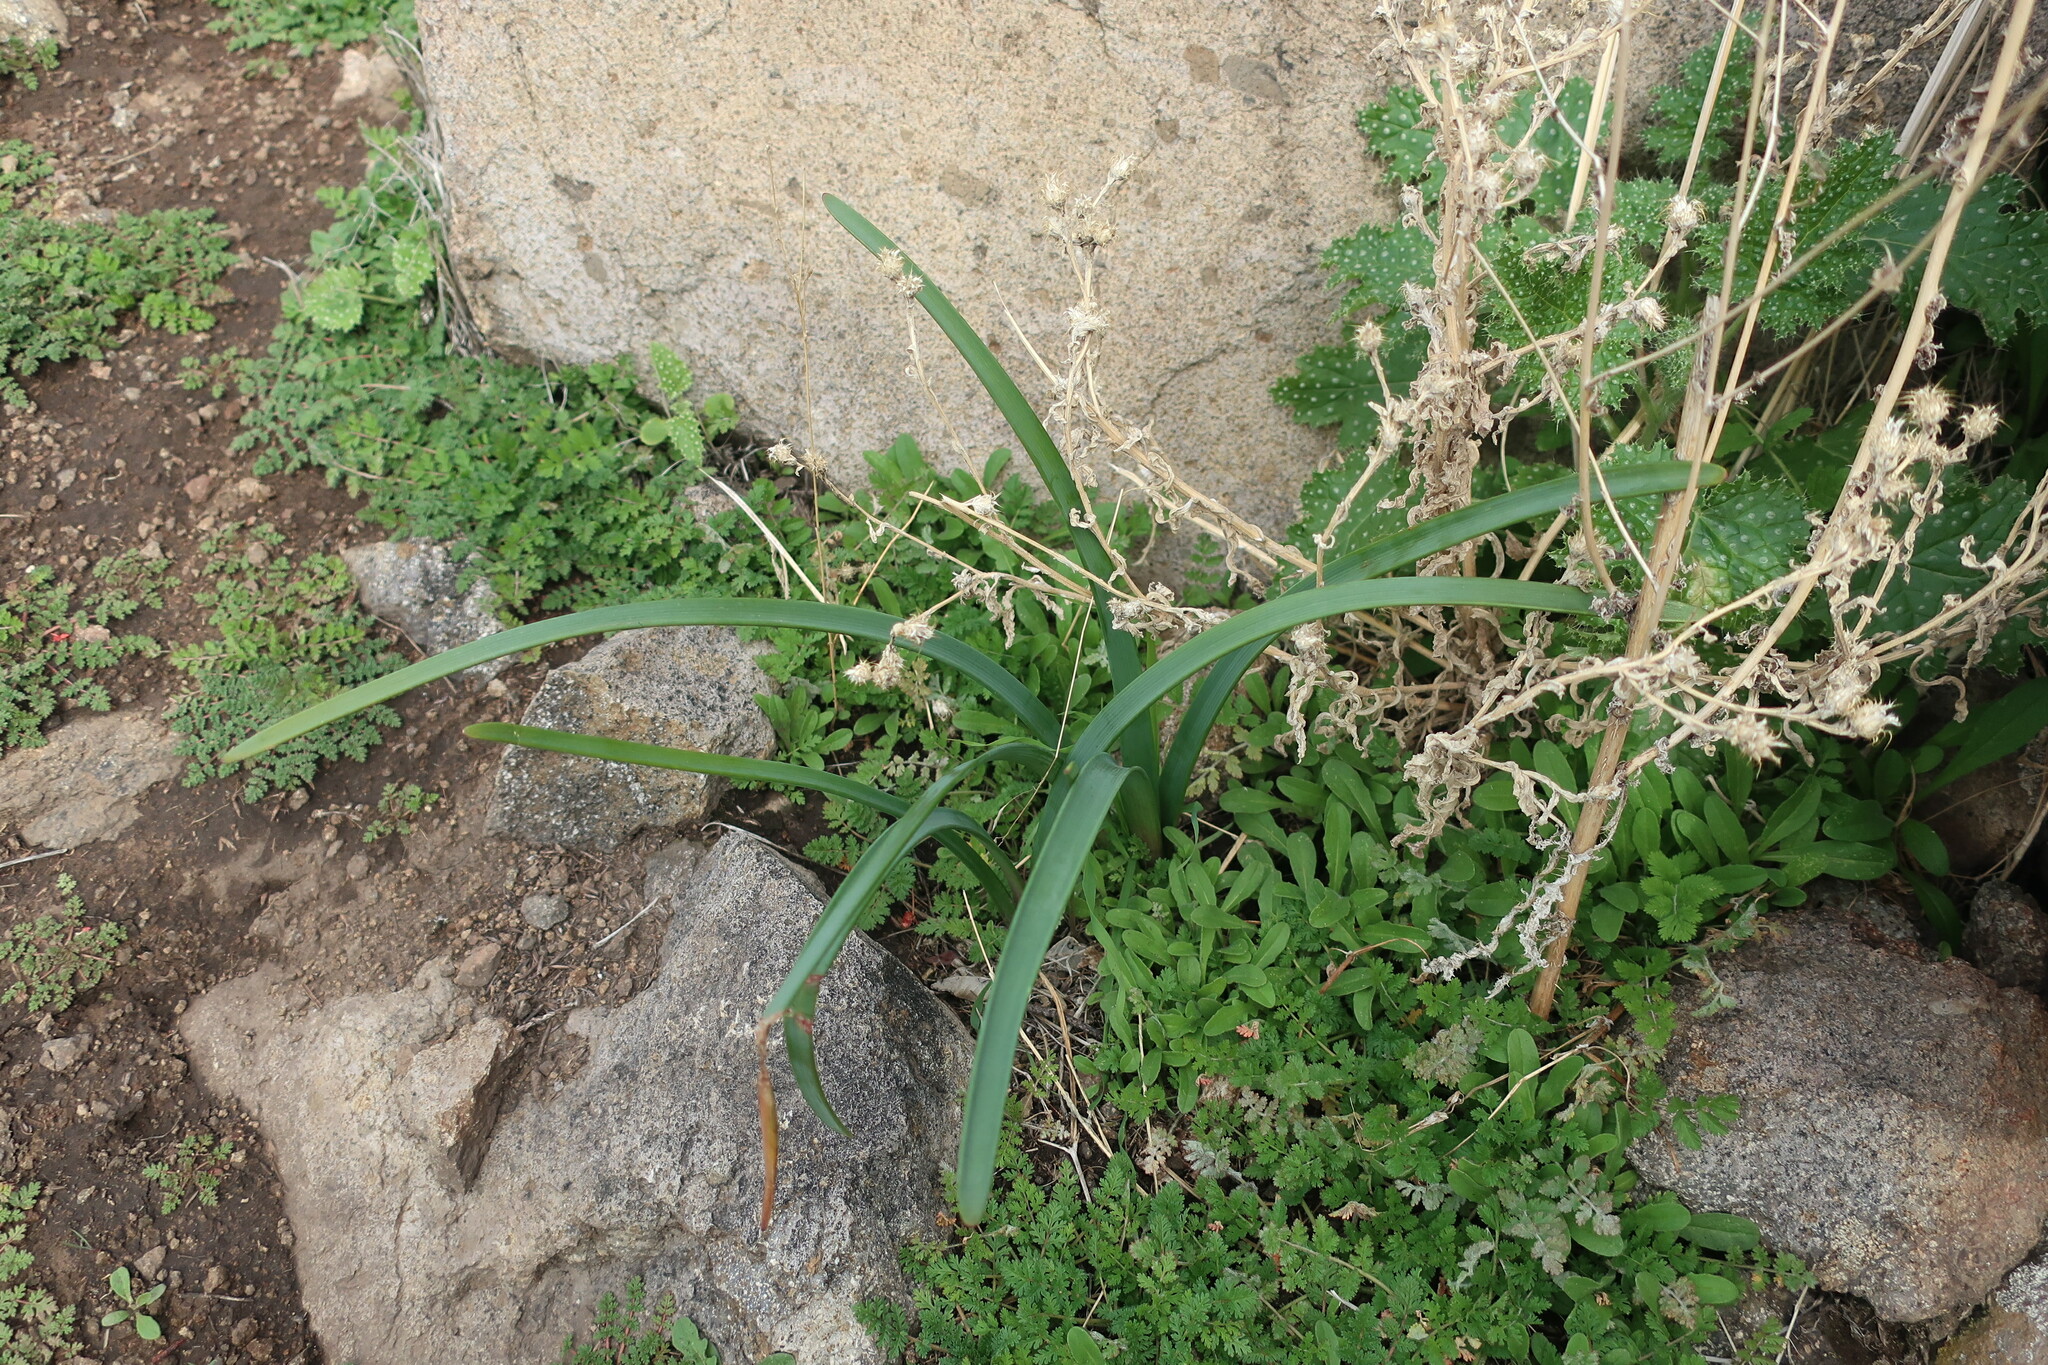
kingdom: Plantae
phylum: Tracheophyta
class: Liliopsida
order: Asparagales
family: Amaryllidaceae
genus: Zephyranthes
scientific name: Zephyranthes advena
